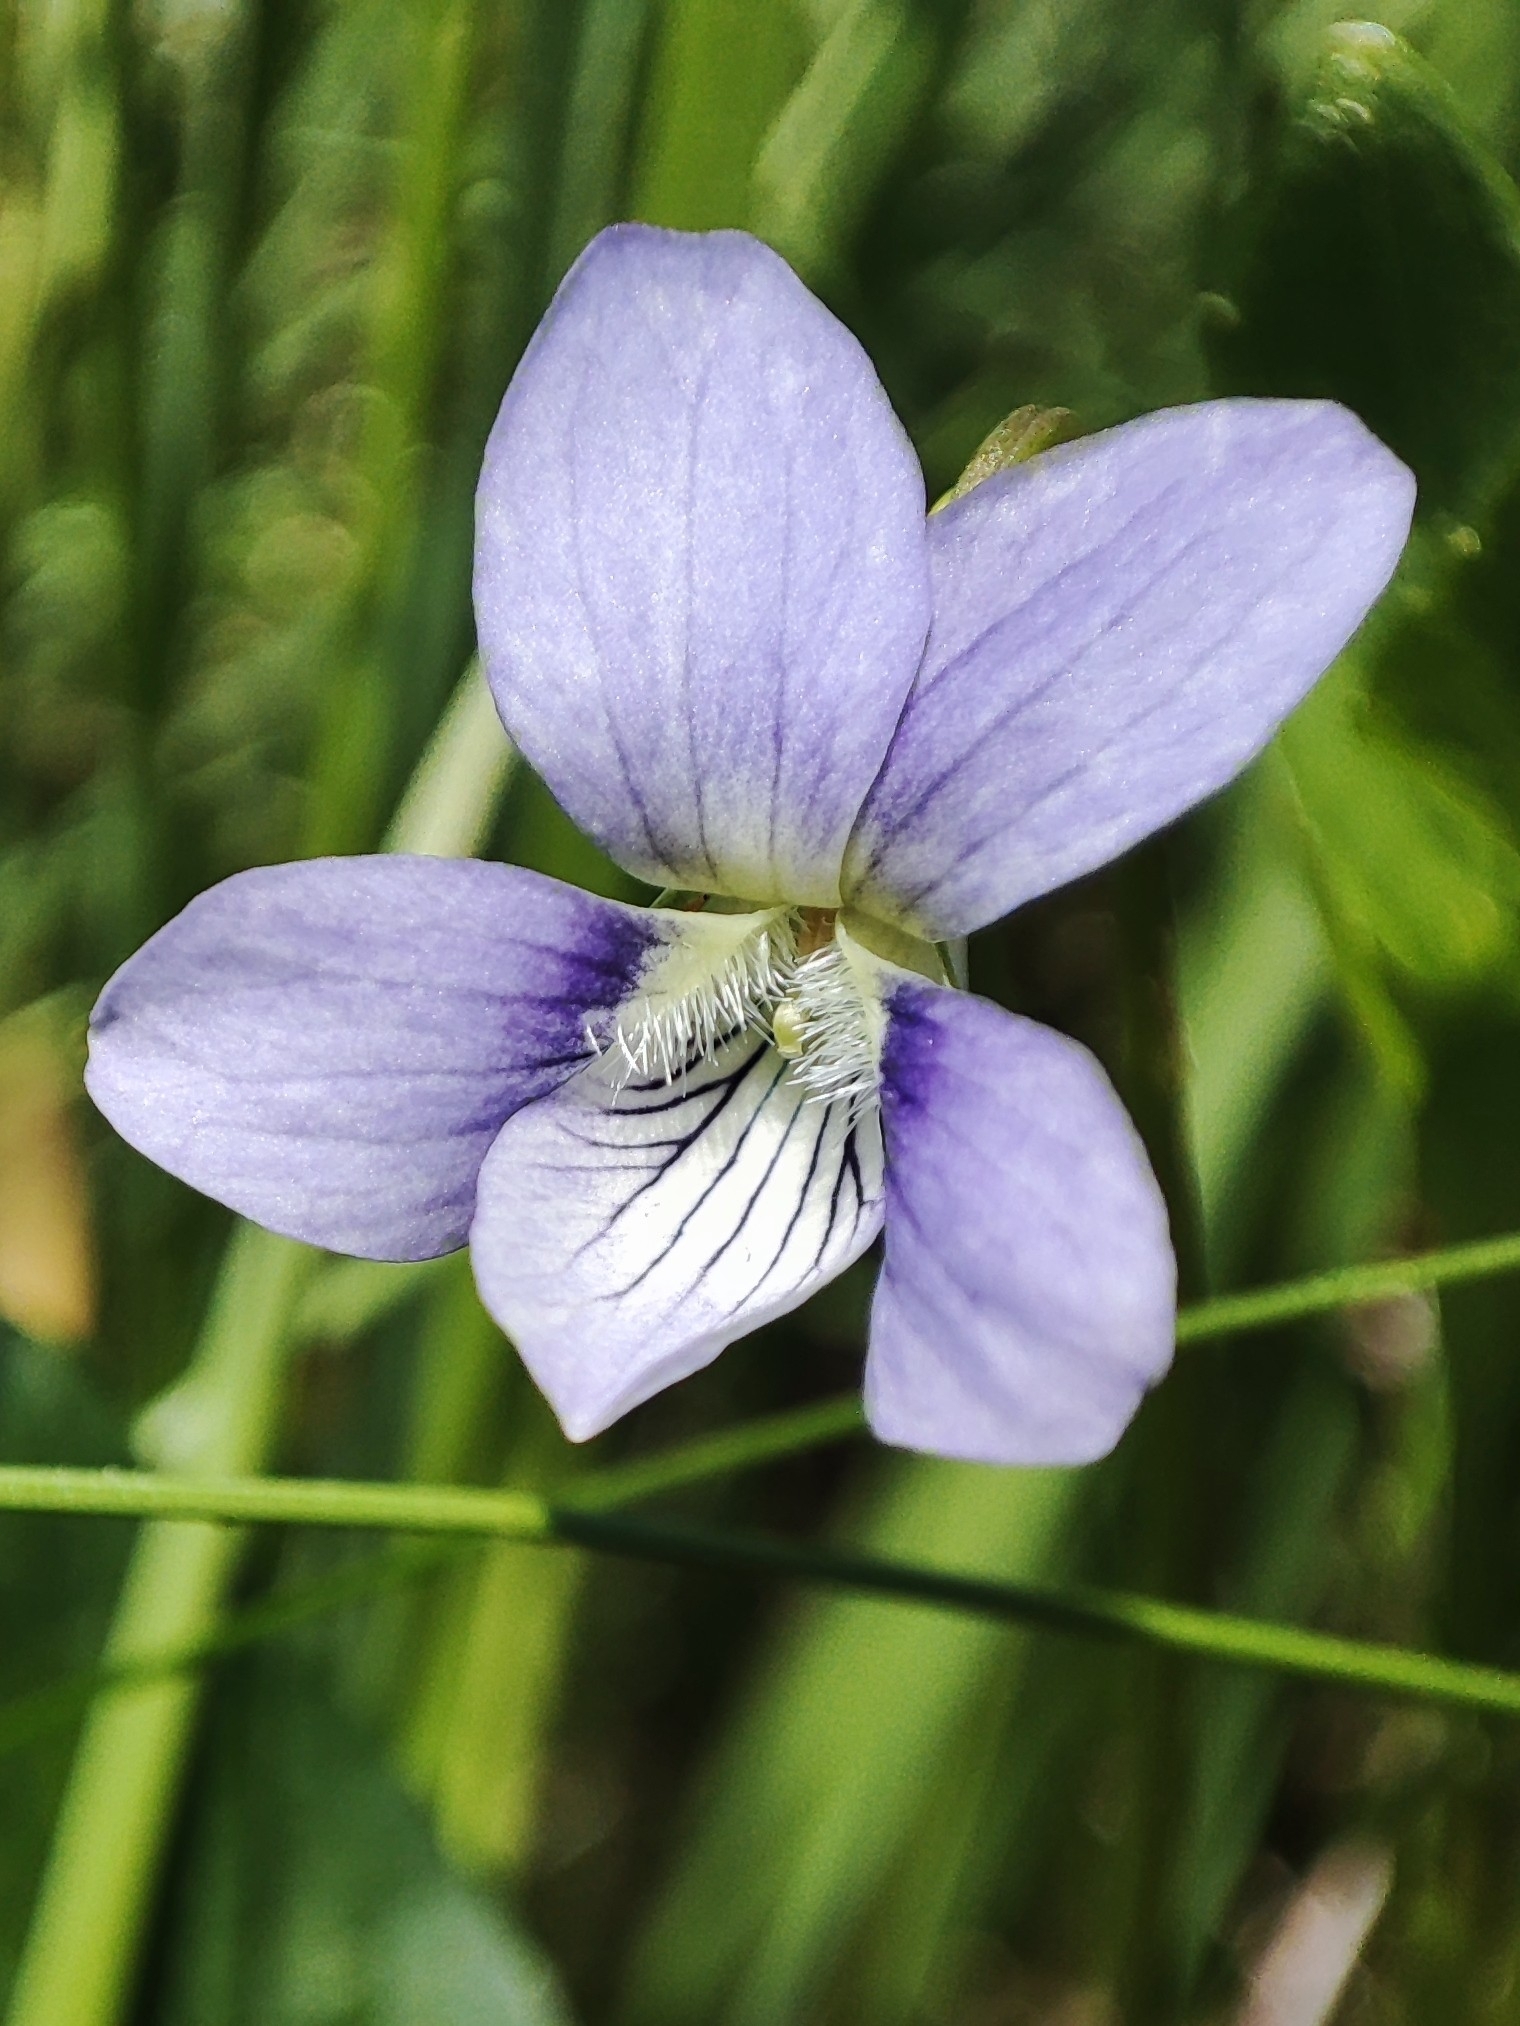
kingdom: Plantae
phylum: Tracheophyta
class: Magnoliopsida
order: Malpighiales
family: Violaceae
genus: Viola
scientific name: Viola canina
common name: Heath dog-violet
